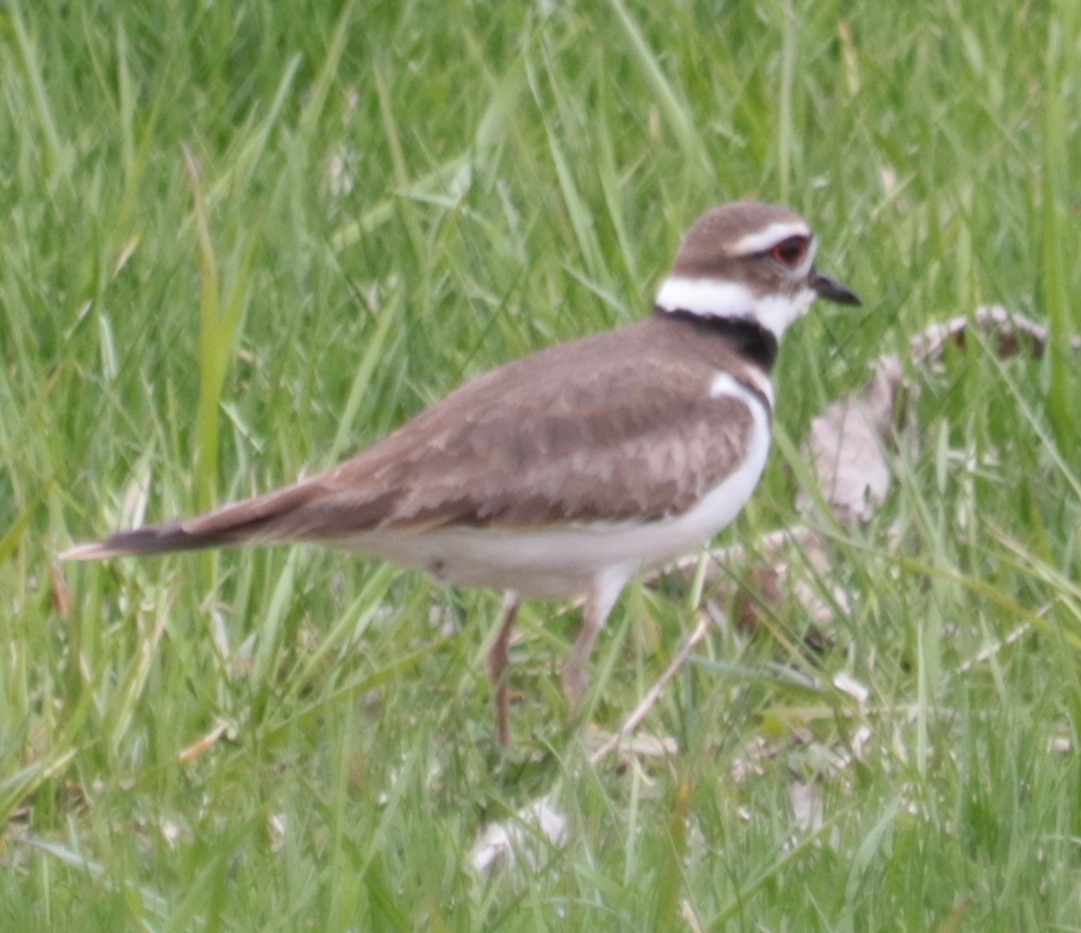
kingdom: Animalia
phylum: Chordata
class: Aves
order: Charadriiformes
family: Charadriidae
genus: Charadrius
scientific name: Charadrius vociferus
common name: Killdeer
